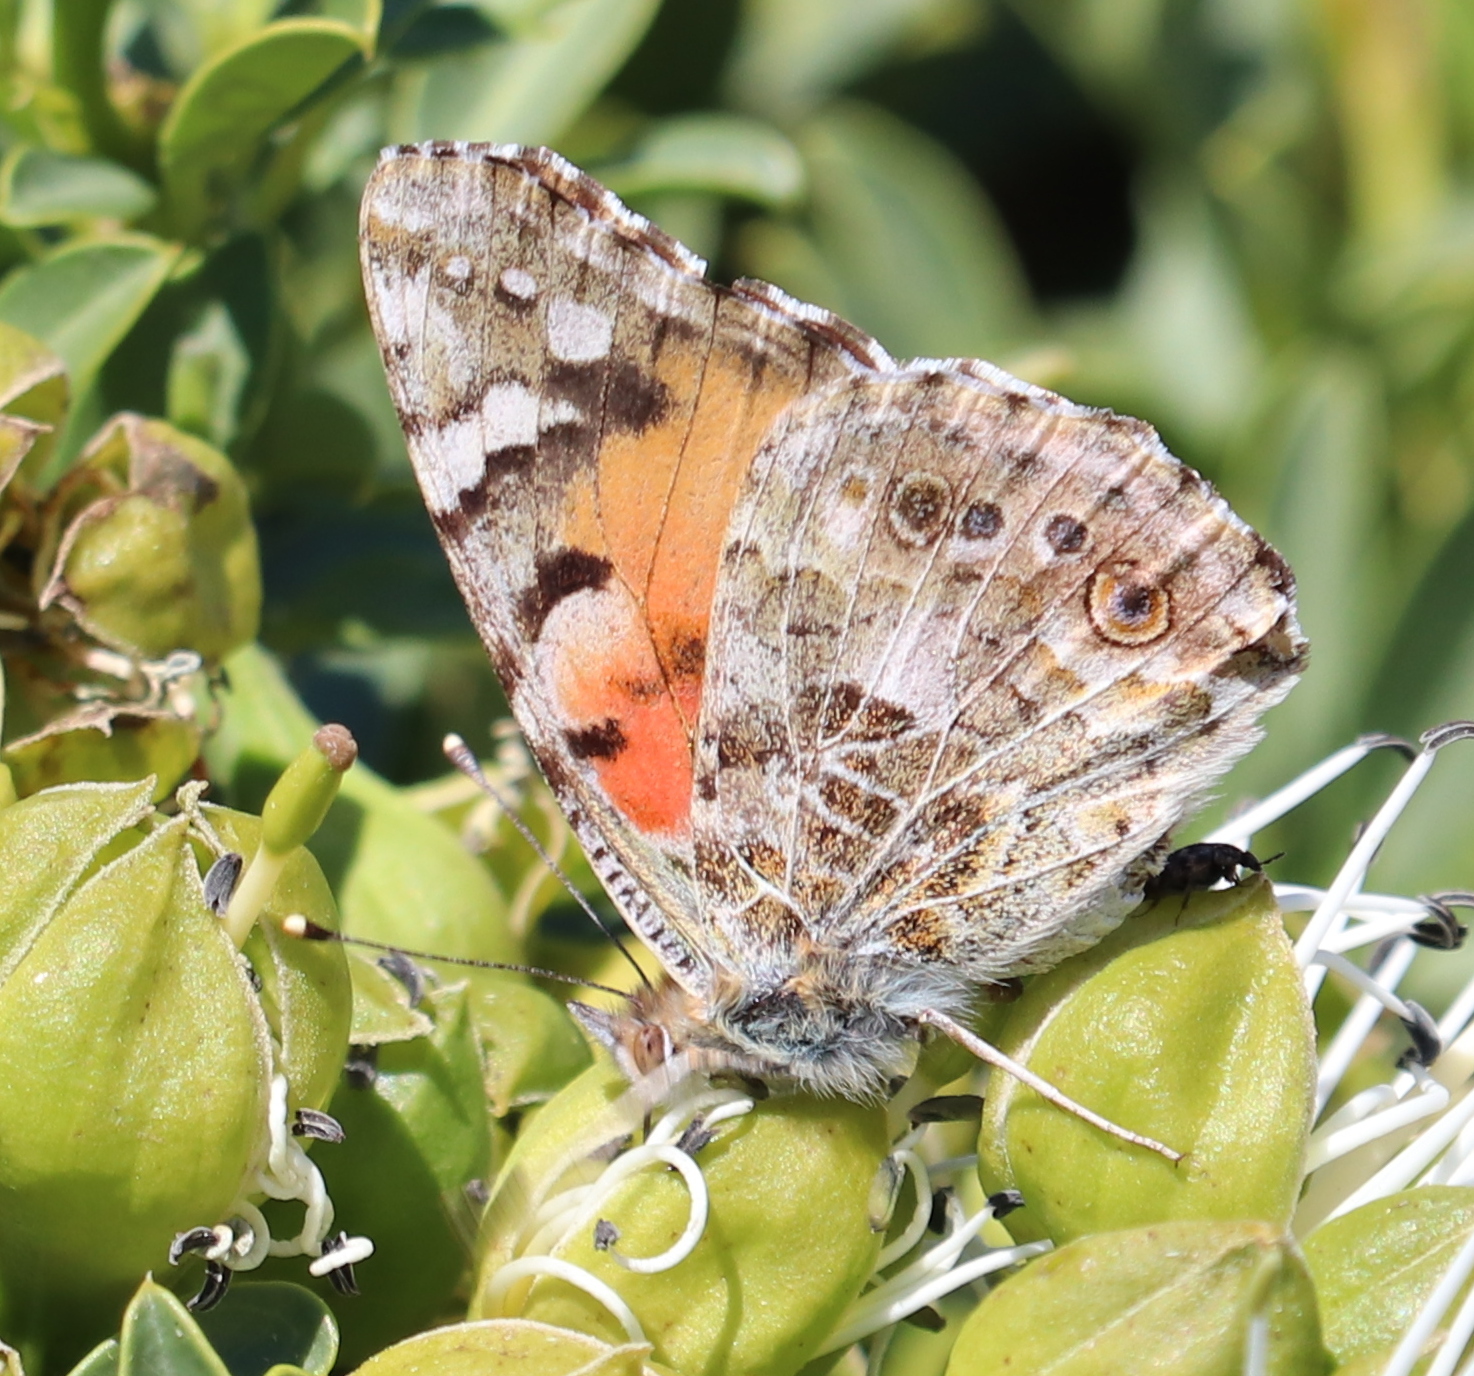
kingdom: Animalia
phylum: Arthropoda
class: Insecta
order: Lepidoptera
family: Nymphalidae
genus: Vanessa
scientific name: Vanessa cardui
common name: Painted lady
